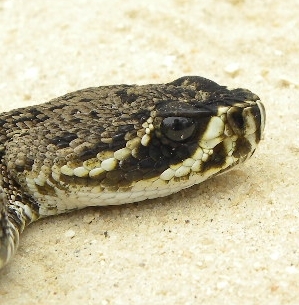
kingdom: Animalia
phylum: Chordata
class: Squamata
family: Viperidae
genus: Crotalus
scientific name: Crotalus adamanteus
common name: Eastern diamondback rattlesnake
